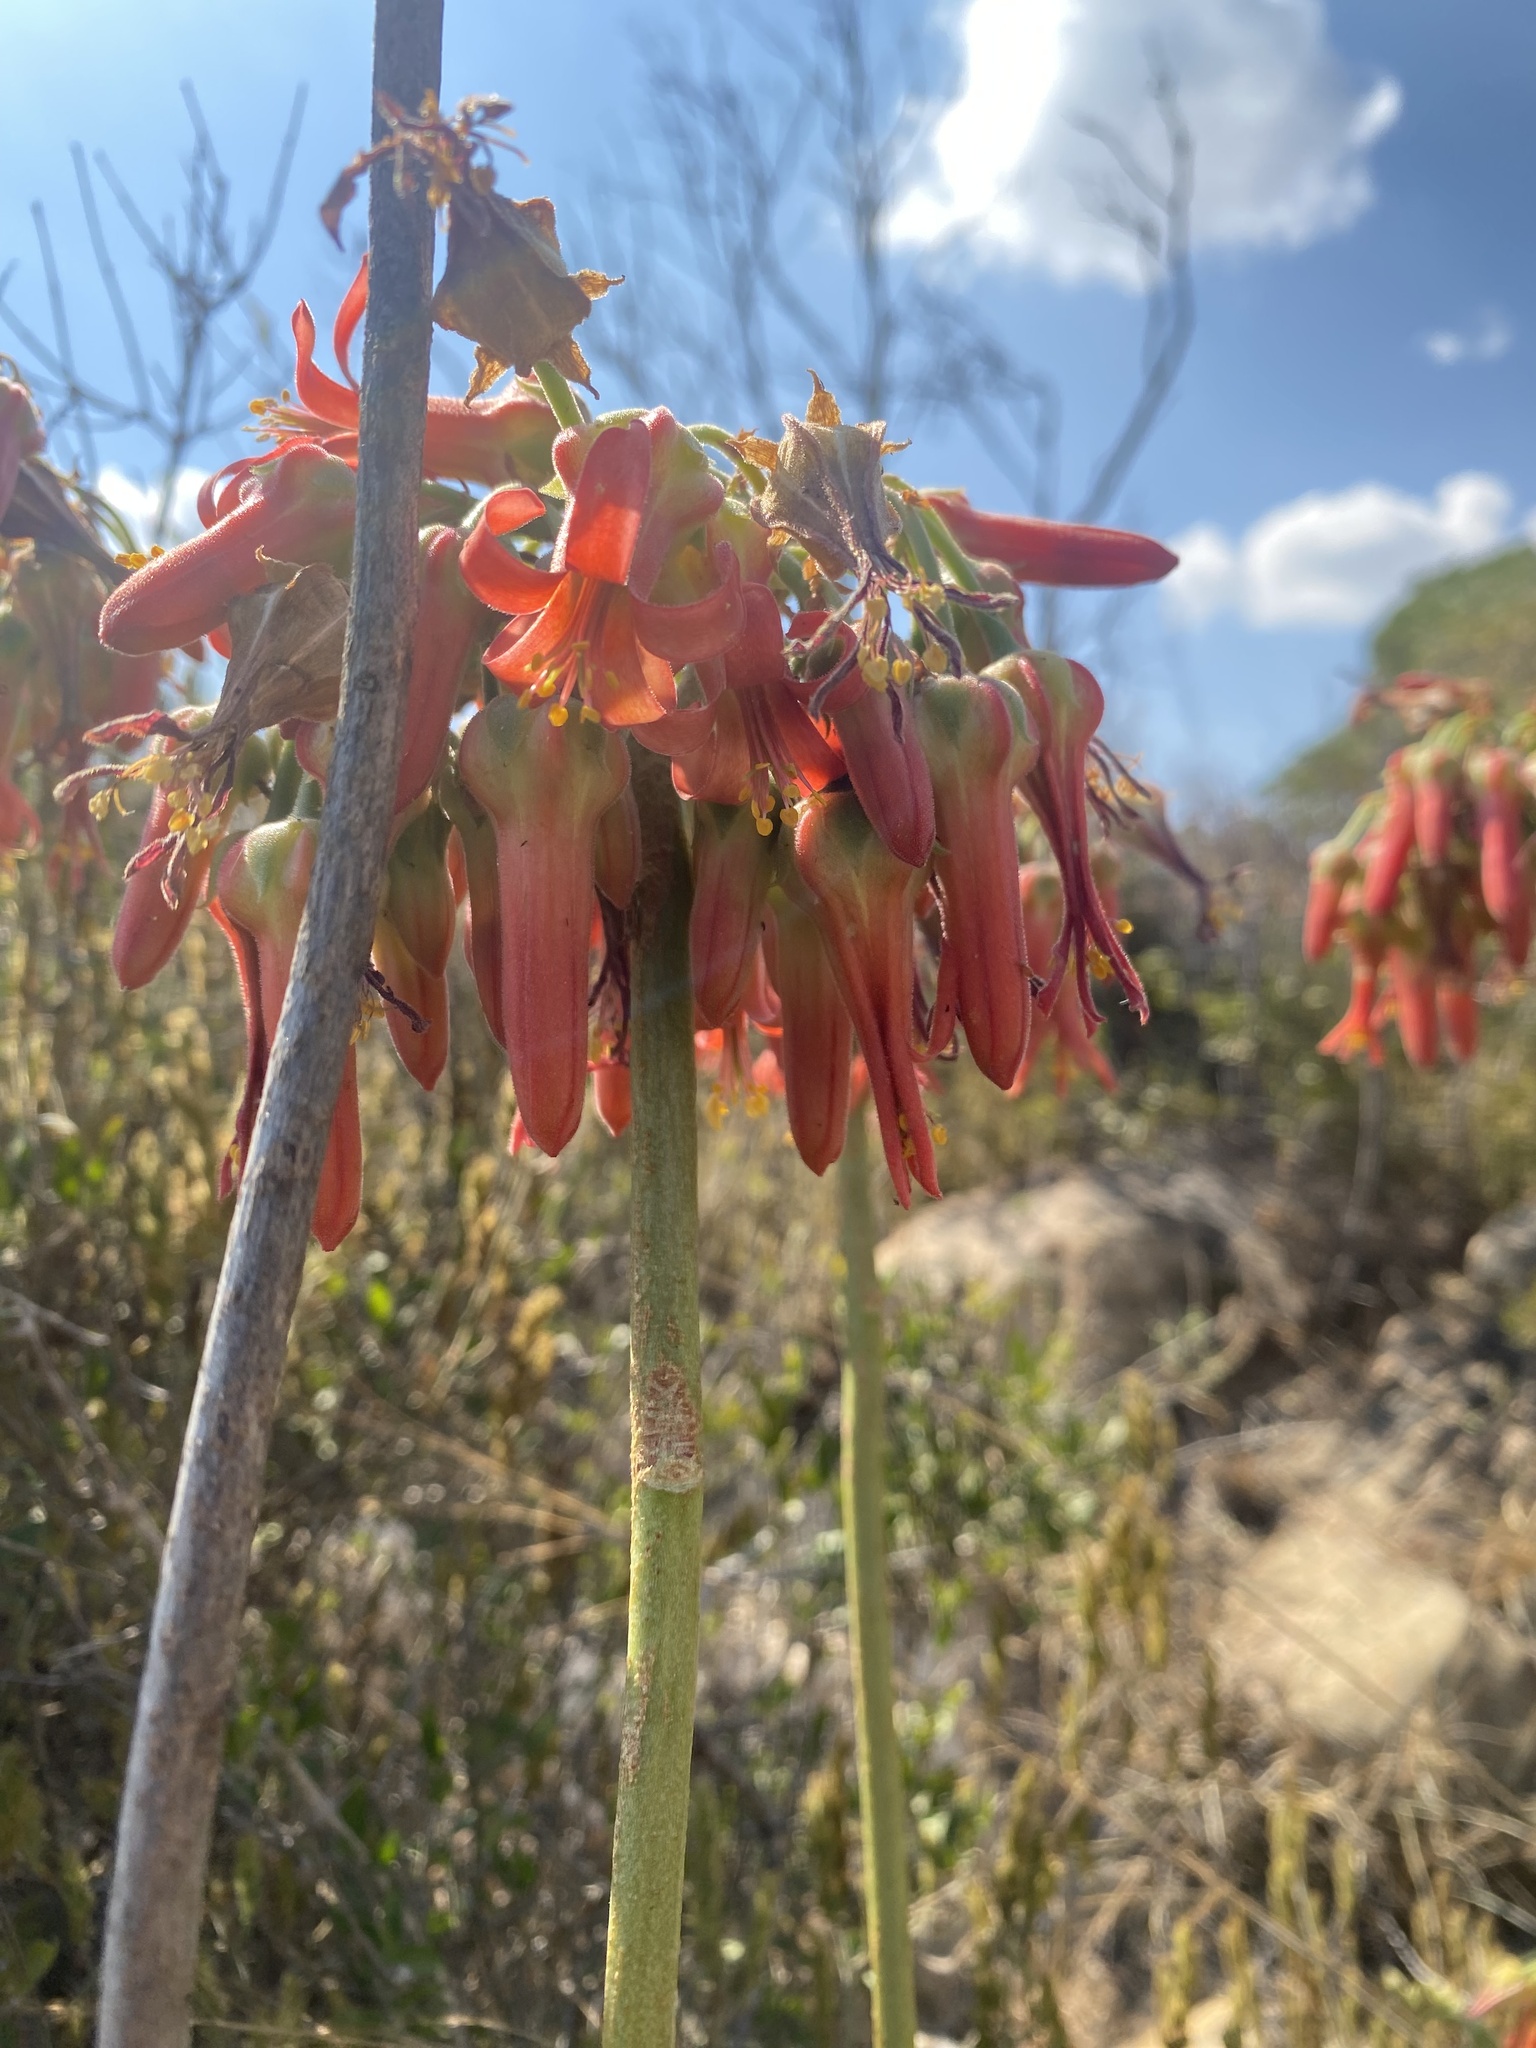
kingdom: Plantae
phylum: Tracheophyta
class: Magnoliopsida
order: Saxifragales
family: Crassulaceae
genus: Cotyledon
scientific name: Cotyledon barbeyi
